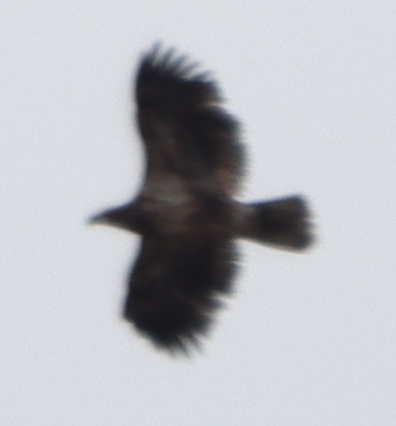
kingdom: Animalia
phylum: Chordata
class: Aves
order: Accipitriformes
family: Accipitridae
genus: Haliaeetus
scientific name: Haliaeetus leucocephalus
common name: Bald eagle
